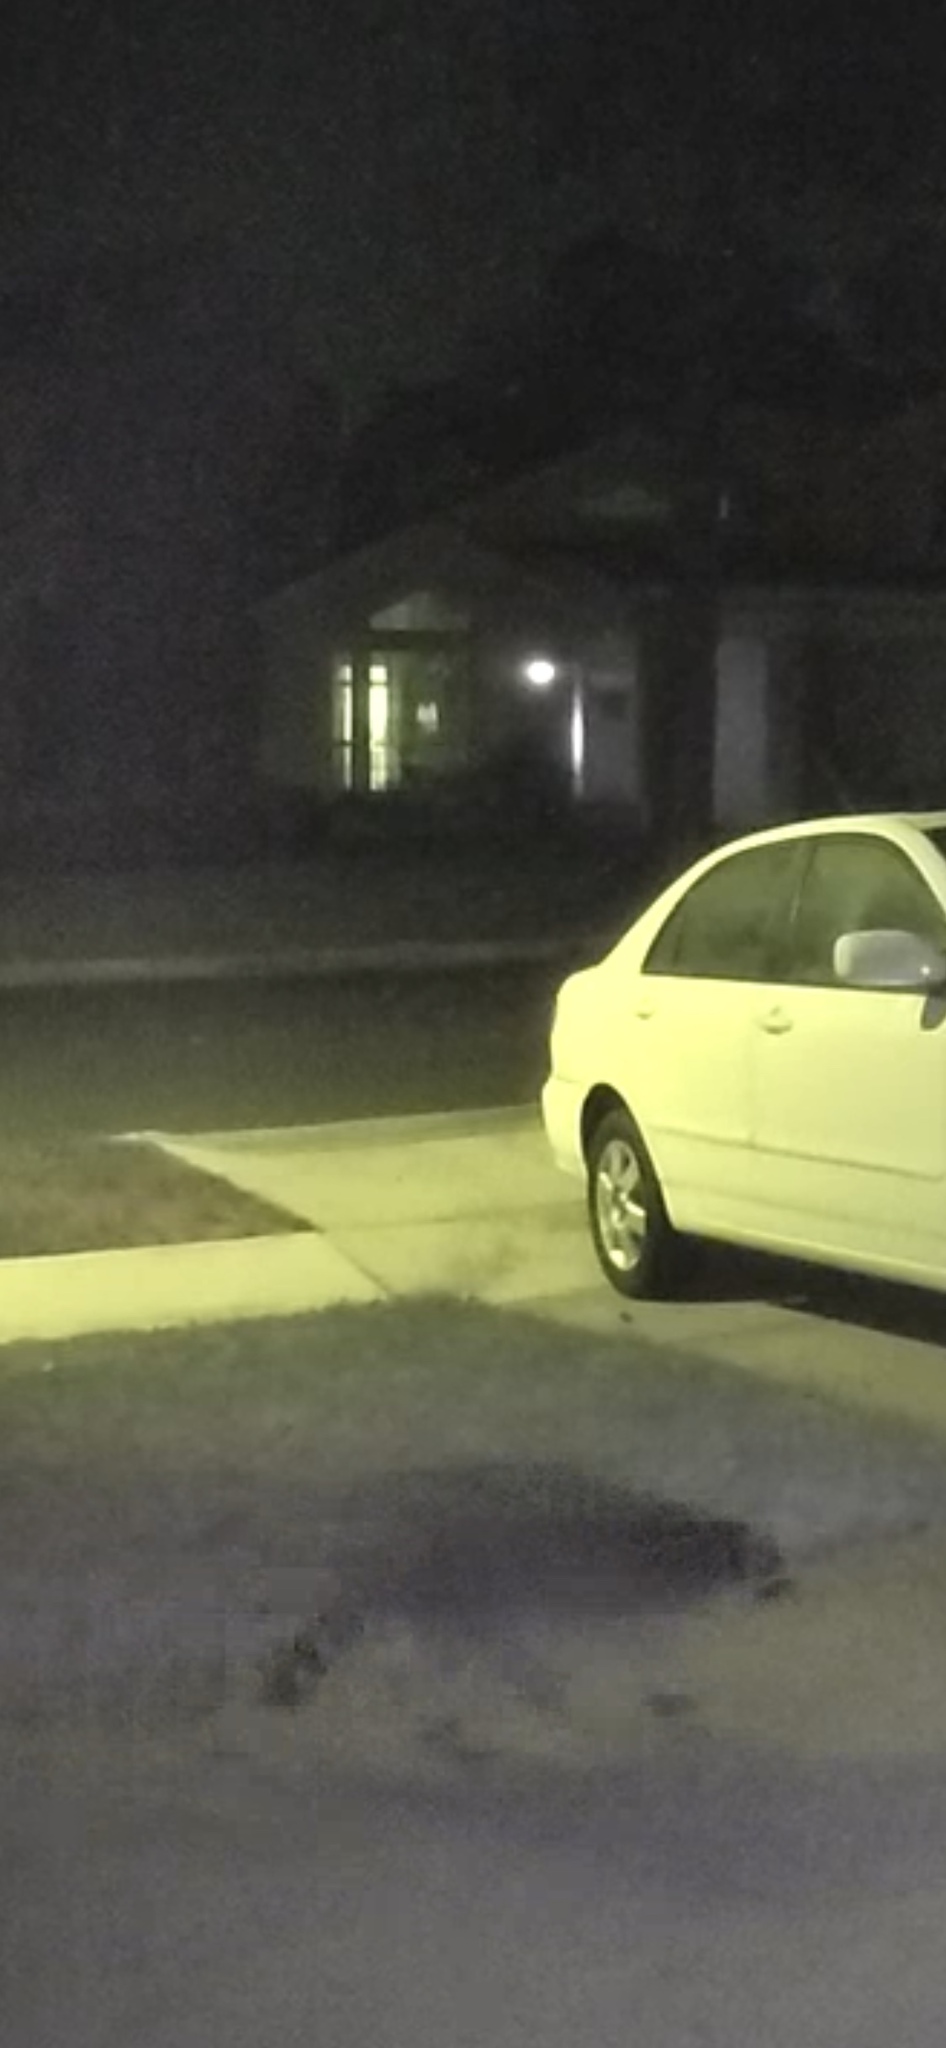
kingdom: Animalia
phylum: Chordata
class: Mammalia
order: Carnivora
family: Procyonidae
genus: Procyon
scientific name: Procyon lotor
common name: Raccoon
